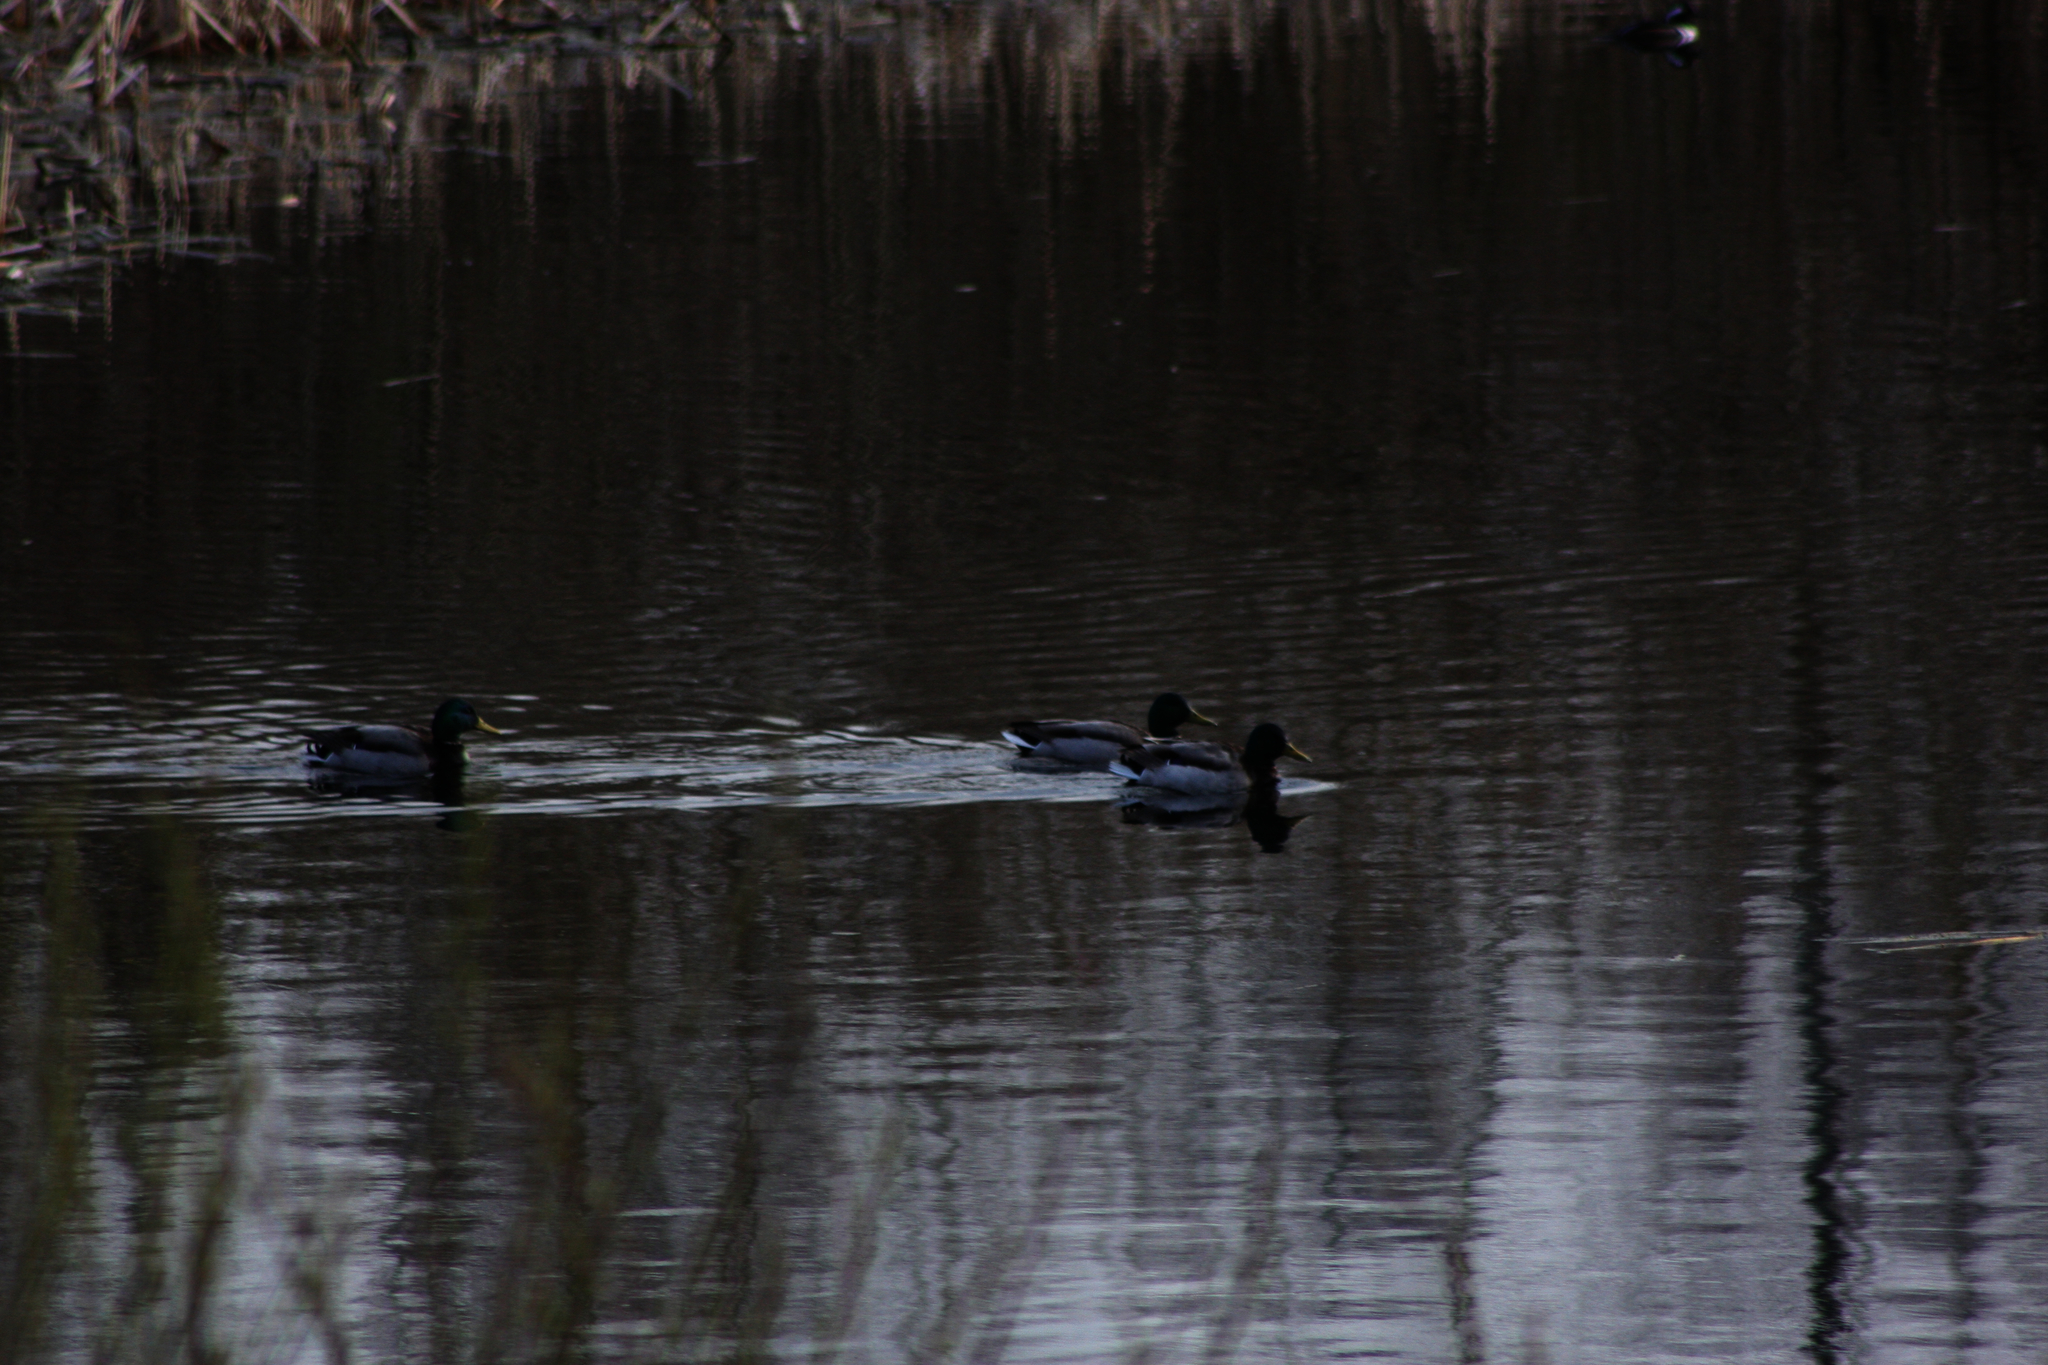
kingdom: Animalia
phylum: Chordata
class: Aves
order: Anseriformes
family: Anatidae
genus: Anas
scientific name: Anas platyrhynchos
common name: Mallard
